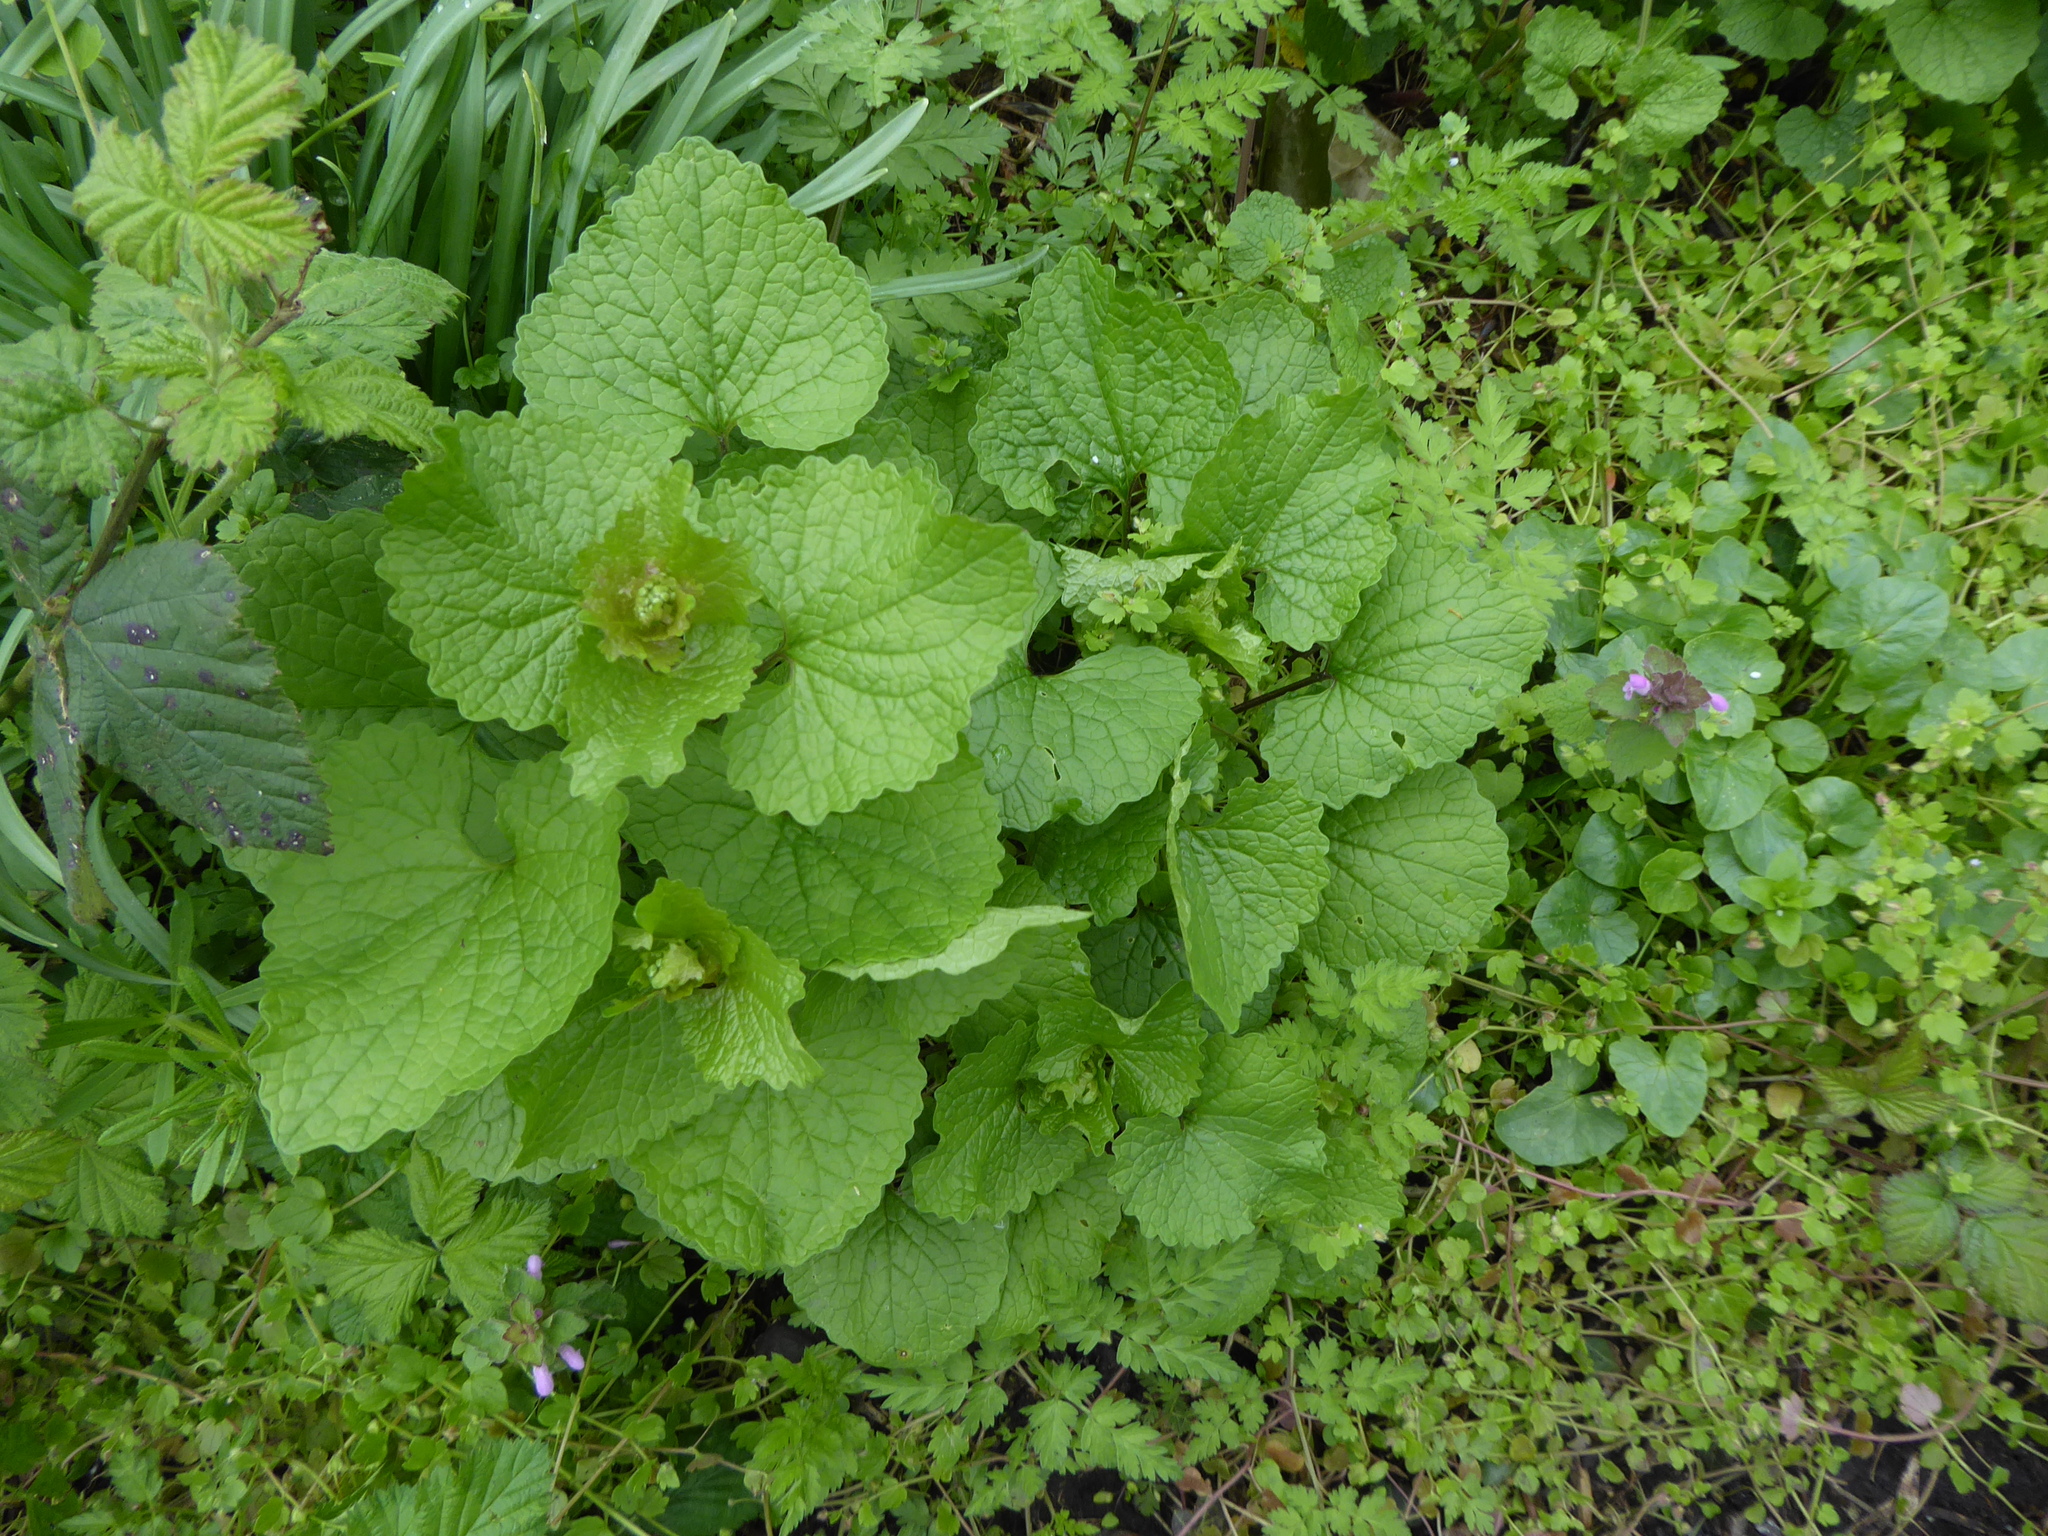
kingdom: Plantae
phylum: Tracheophyta
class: Magnoliopsida
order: Brassicales
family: Brassicaceae
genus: Alliaria
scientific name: Alliaria petiolata
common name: Garlic mustard
